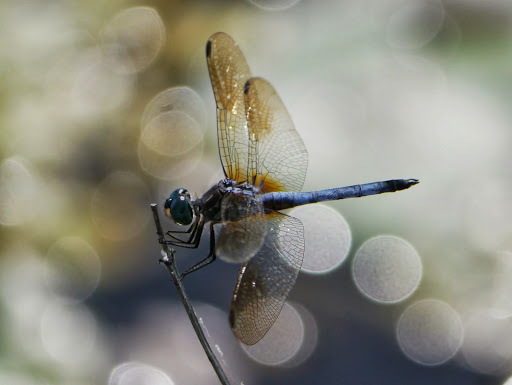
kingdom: Animalia
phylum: Arthropoda
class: Insecta
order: Odonata
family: Libellulidae
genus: Pachydiplax
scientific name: Pachydiplax longipennis
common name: Blue dasher
